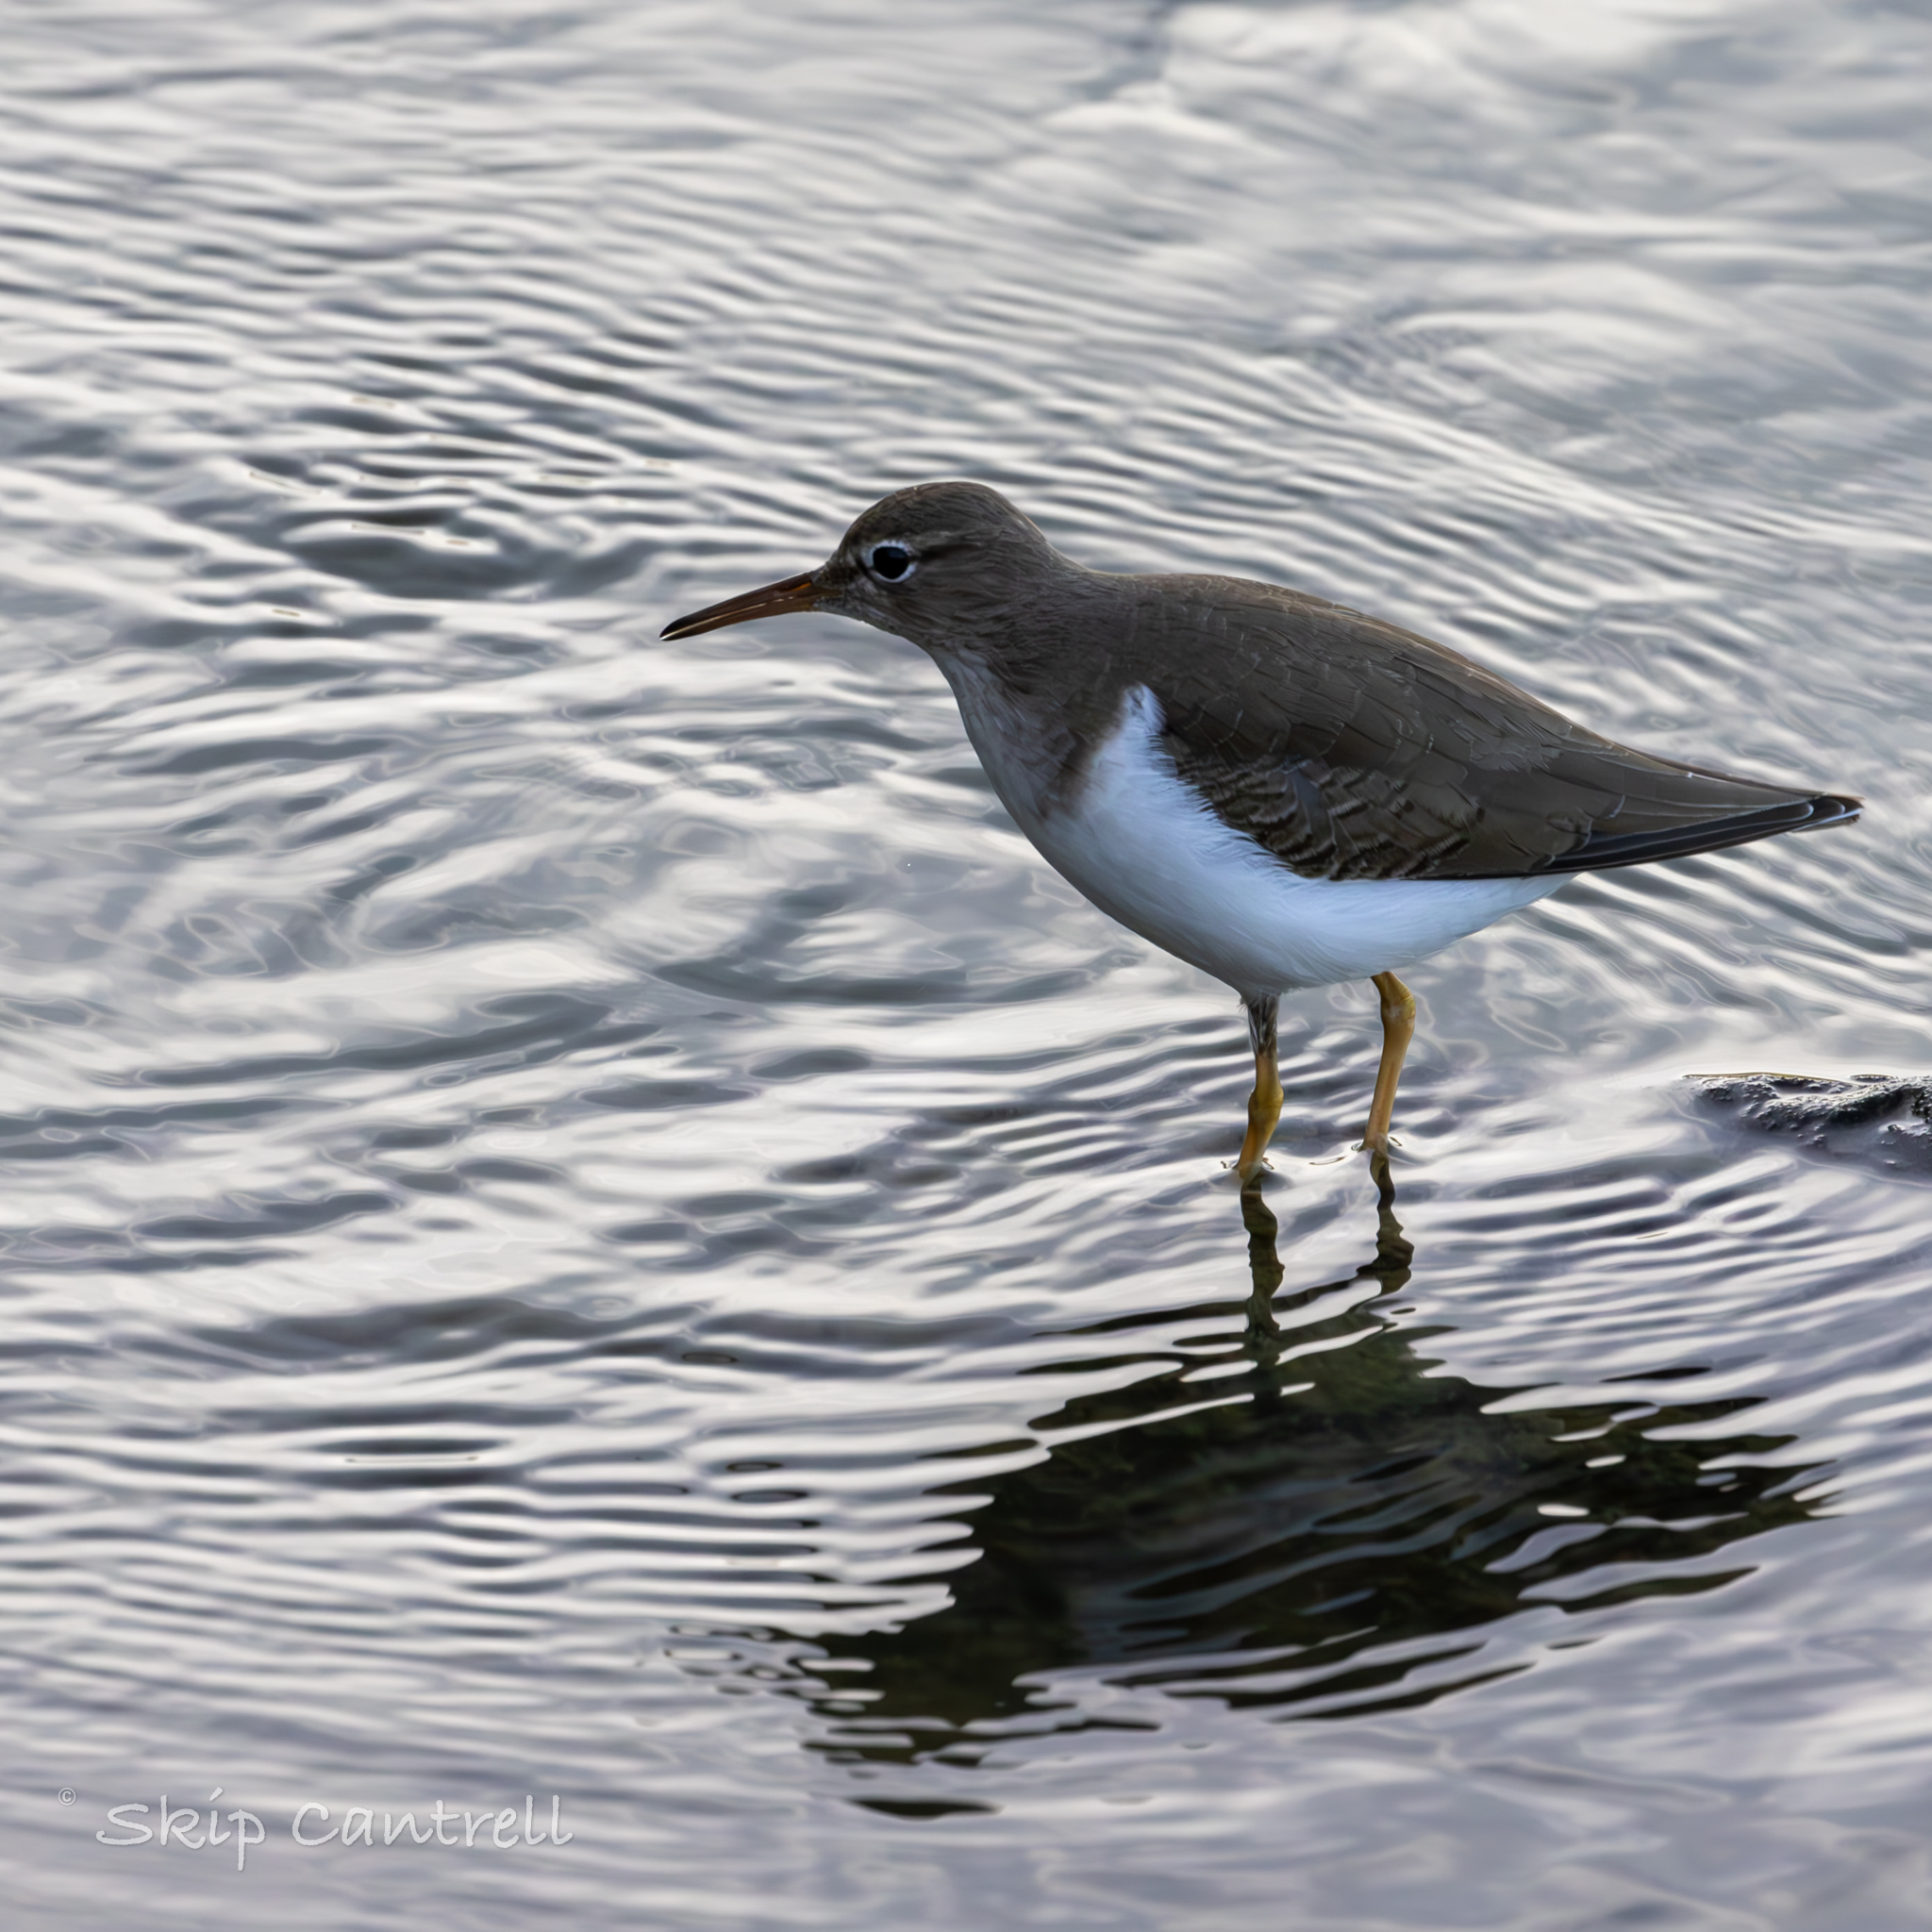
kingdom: Animalia
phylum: Chordata
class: Aves
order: Charadriiformes
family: Scolopacidae
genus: Actitis
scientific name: Actitis macularius
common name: Spotted sandpiper
